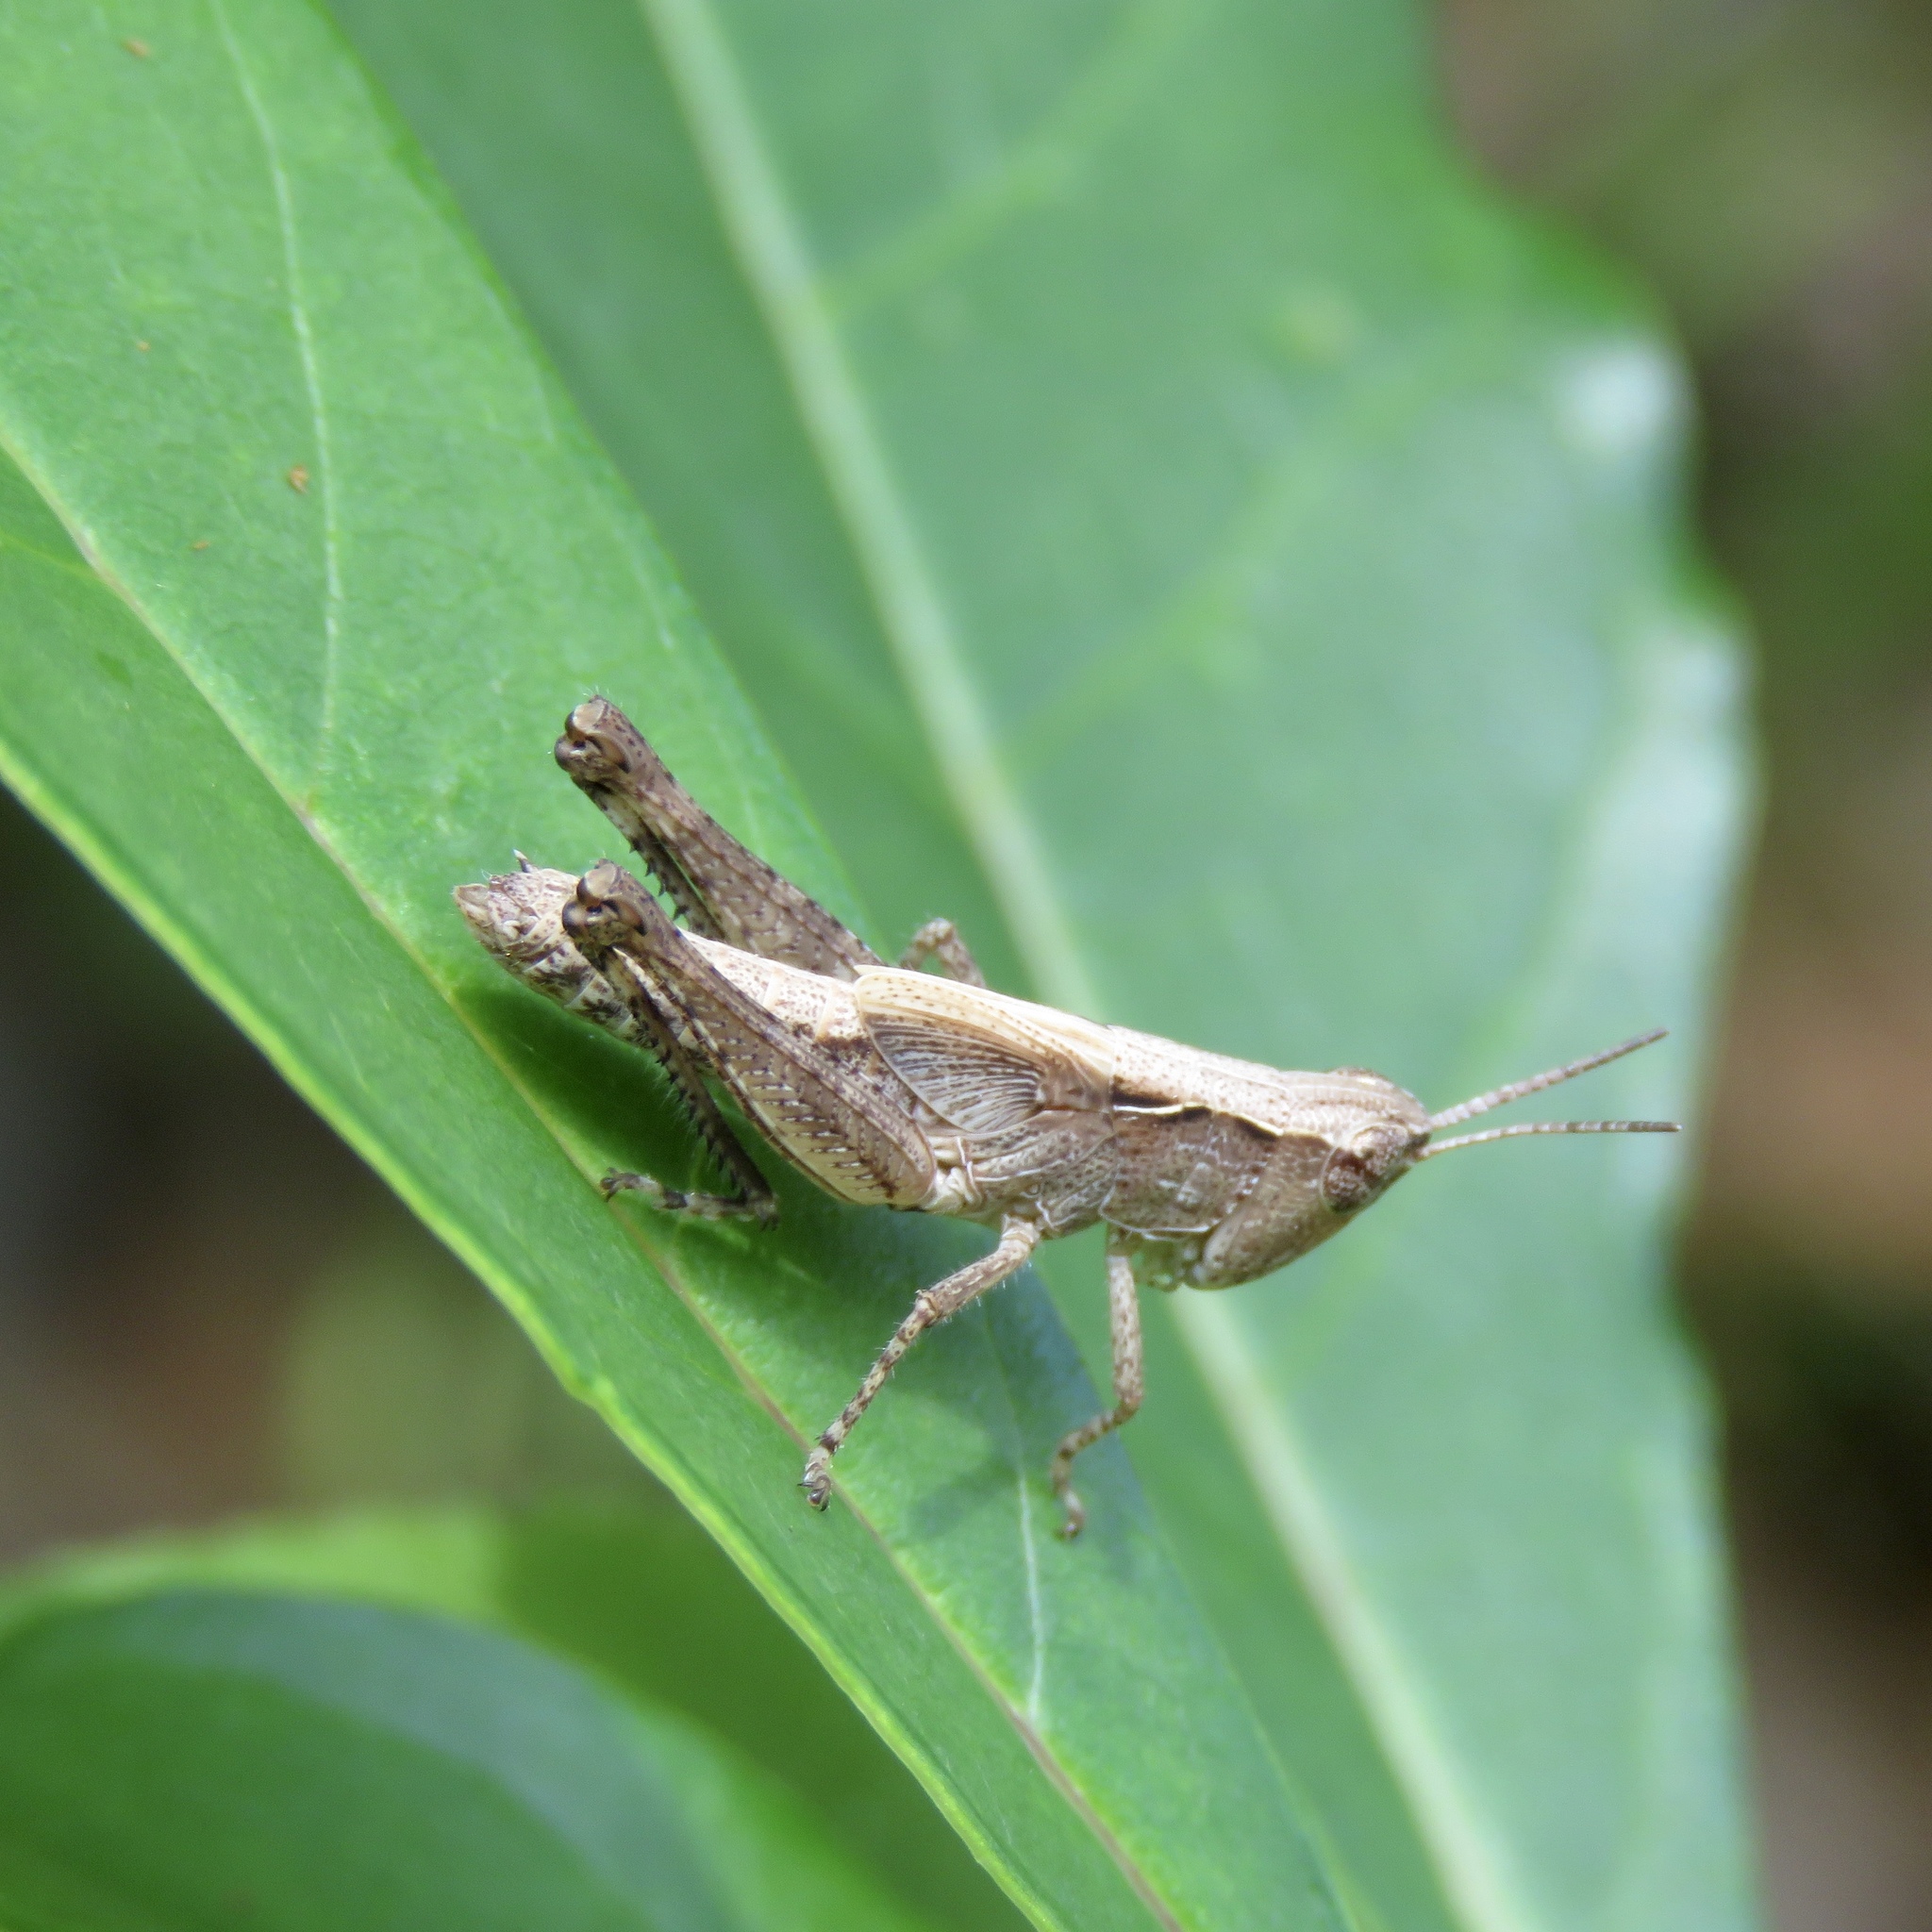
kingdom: Animalia
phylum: Arthropoda
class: Insecta
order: Orthoptera
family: Acrididae
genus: Orphulella
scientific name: Orphulella pelidna
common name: Spotted-wing grasshopper
